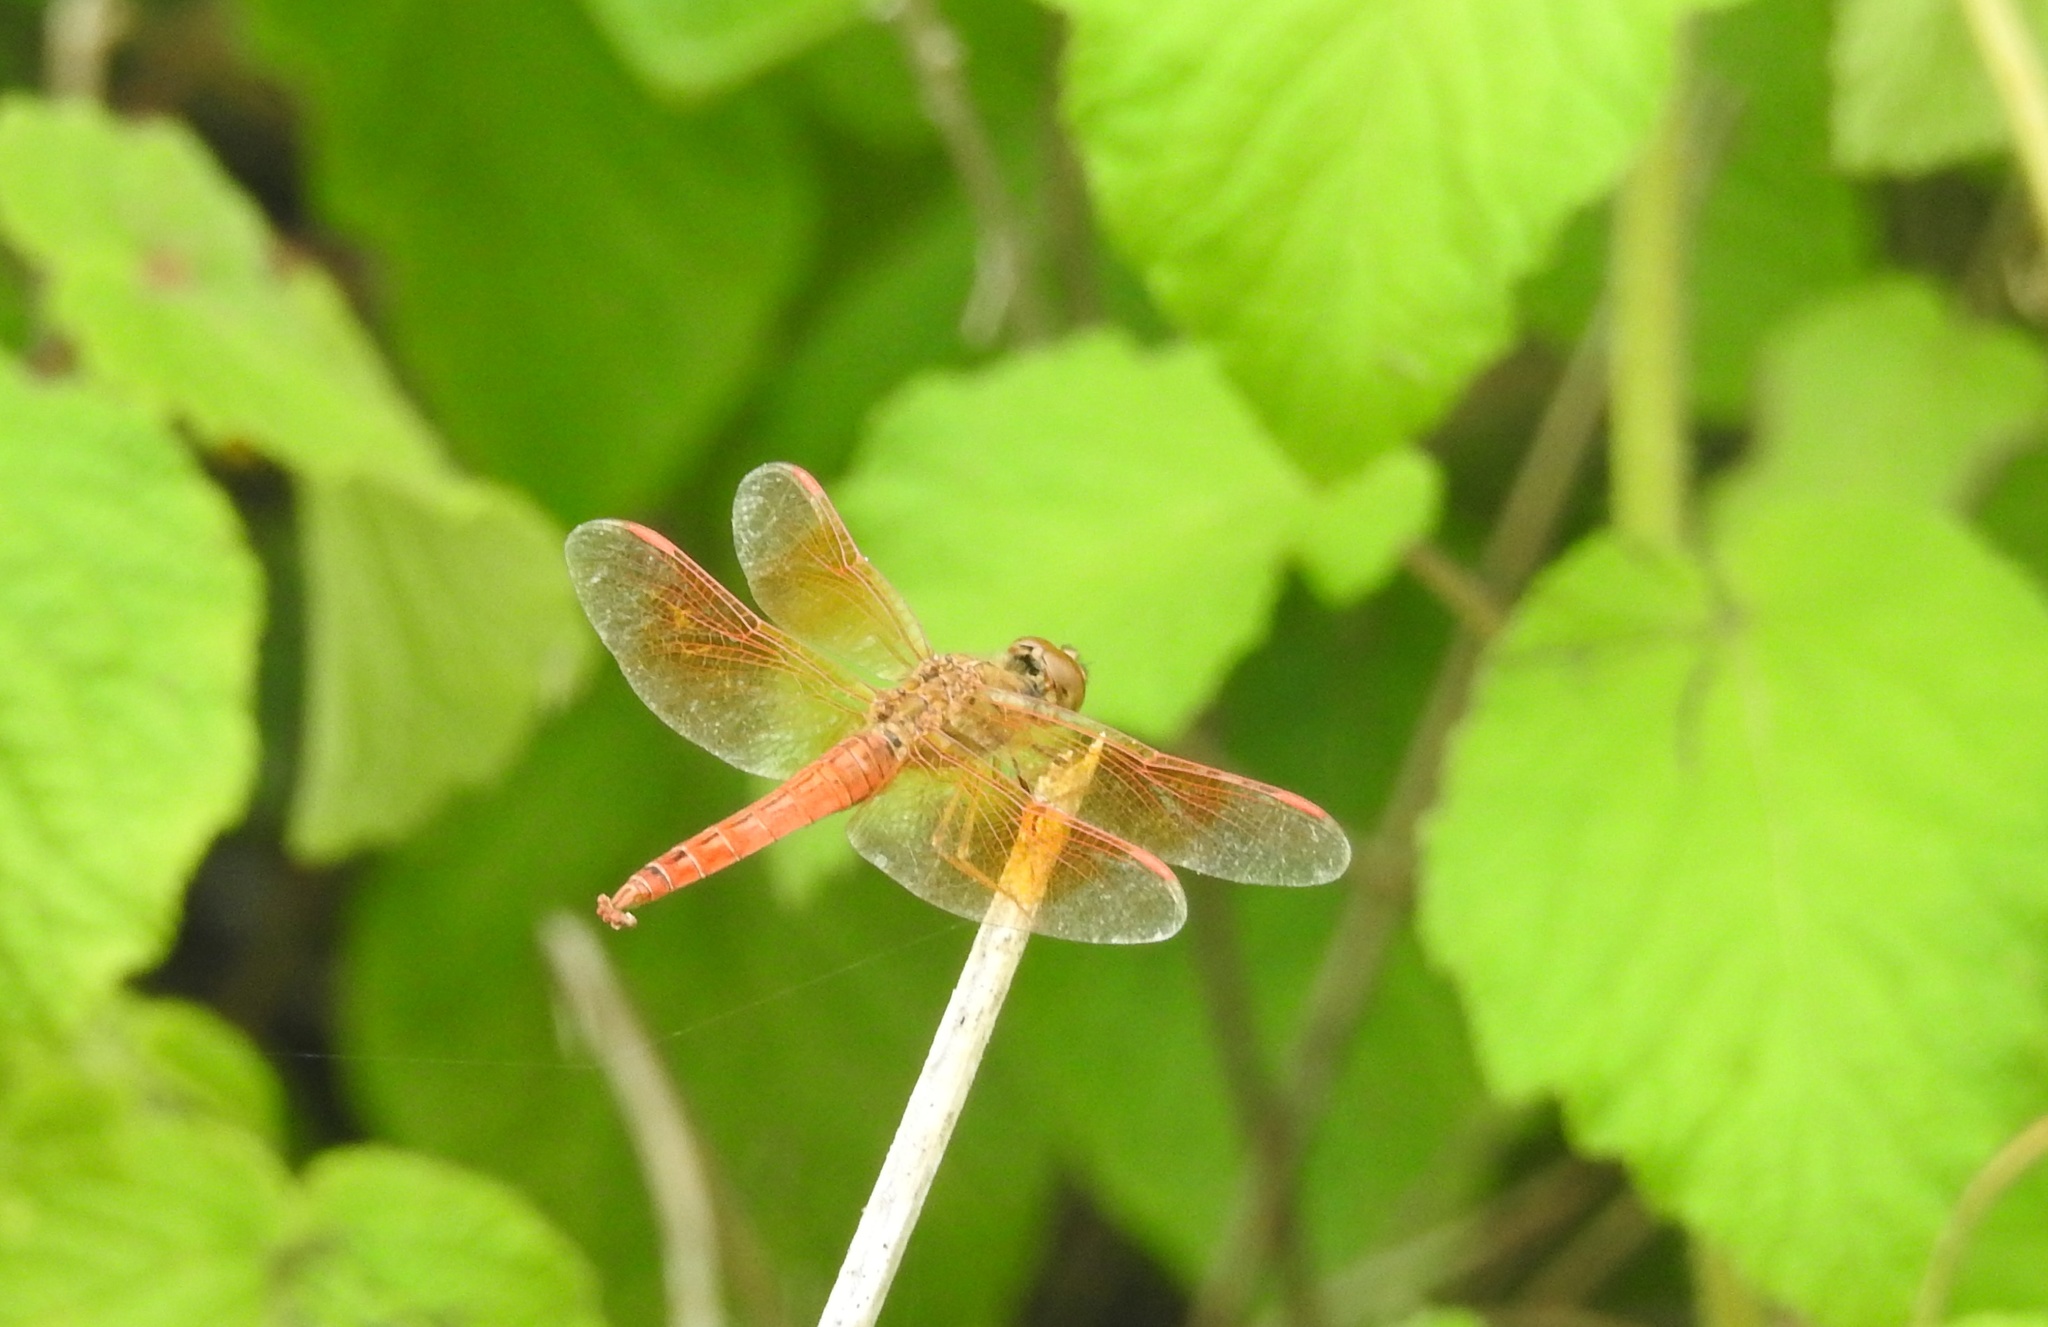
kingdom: Animalia
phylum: Arthropoda
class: Insecta
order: Odonata
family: Libellulidae
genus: Brachythemis
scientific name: Brachythemis contaminata
